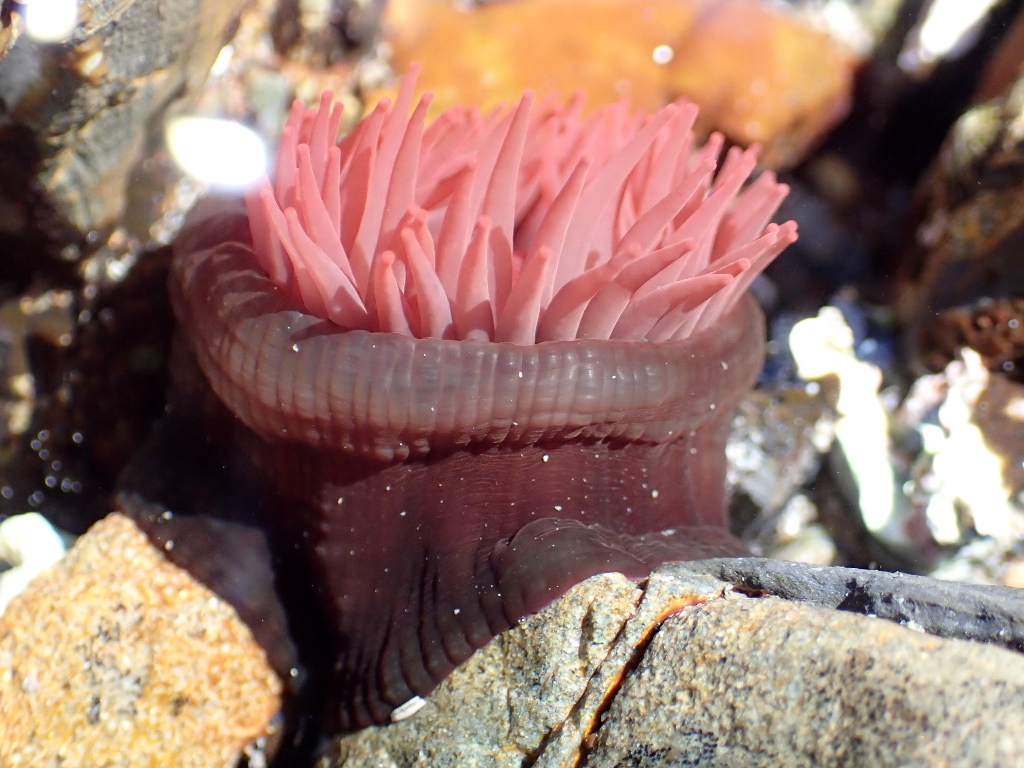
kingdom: Animalia
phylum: Cnidaria
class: Anthozoa
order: Actiniaria
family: Actiniidae
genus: Actinia
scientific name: Actinia tenebrosa
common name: Waratah anemone
